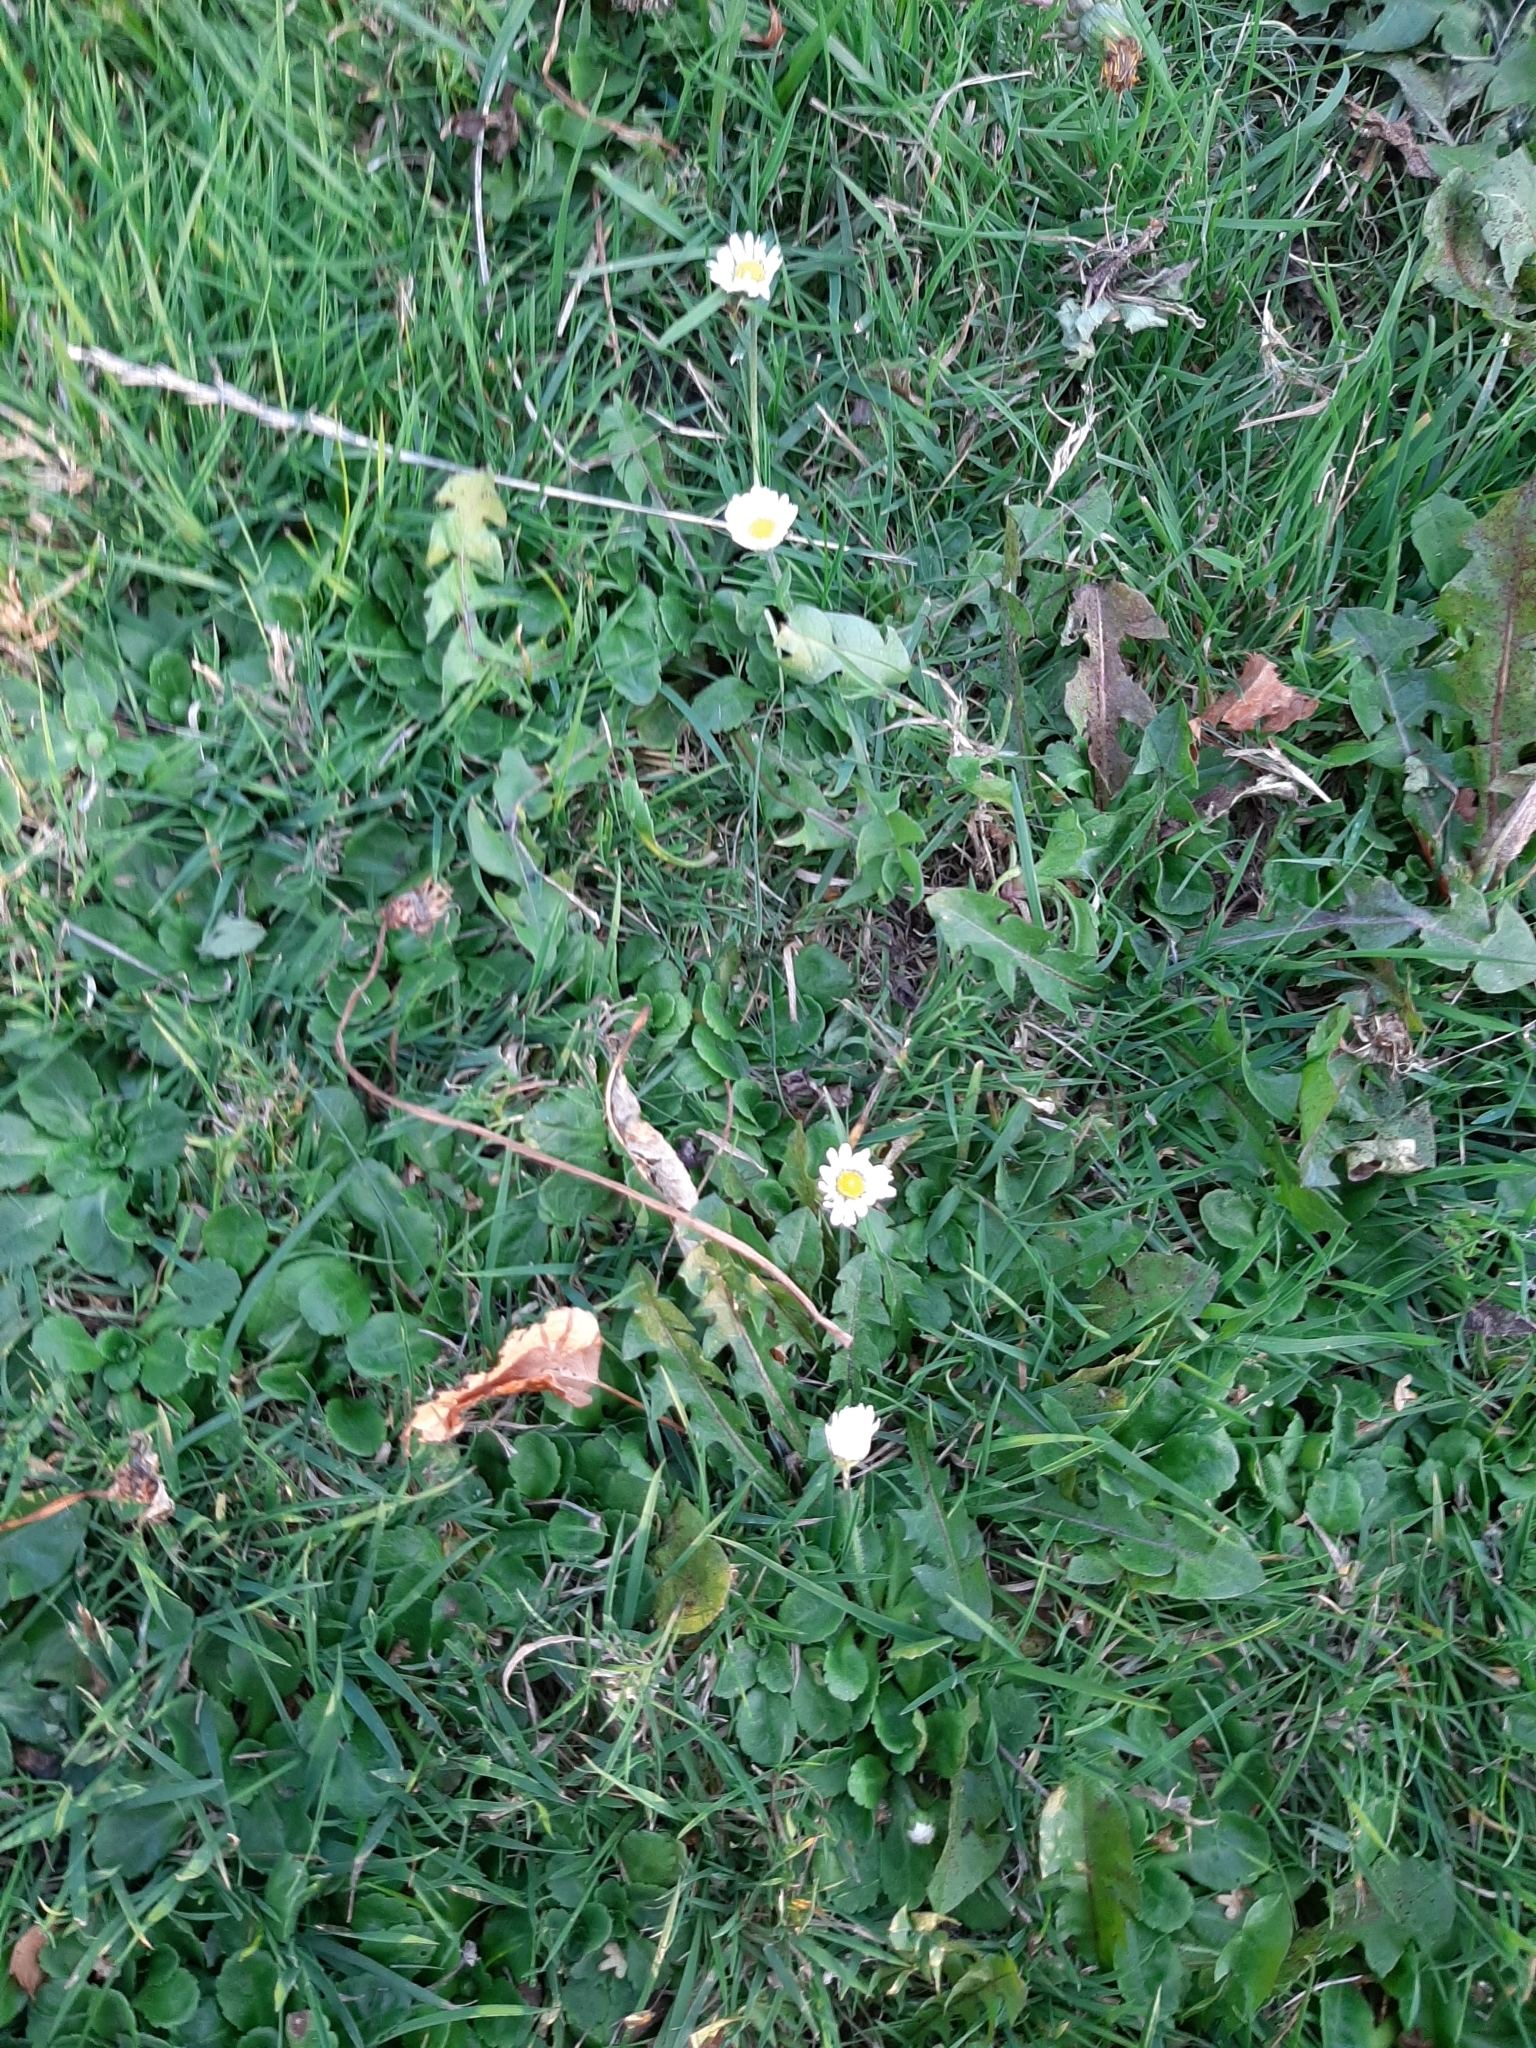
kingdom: Plantae
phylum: Tracheophyta
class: Magnoliopsida
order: Asterales
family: Asteraceae
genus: Bellis
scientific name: Bellis perennis
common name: Lawndaisy
